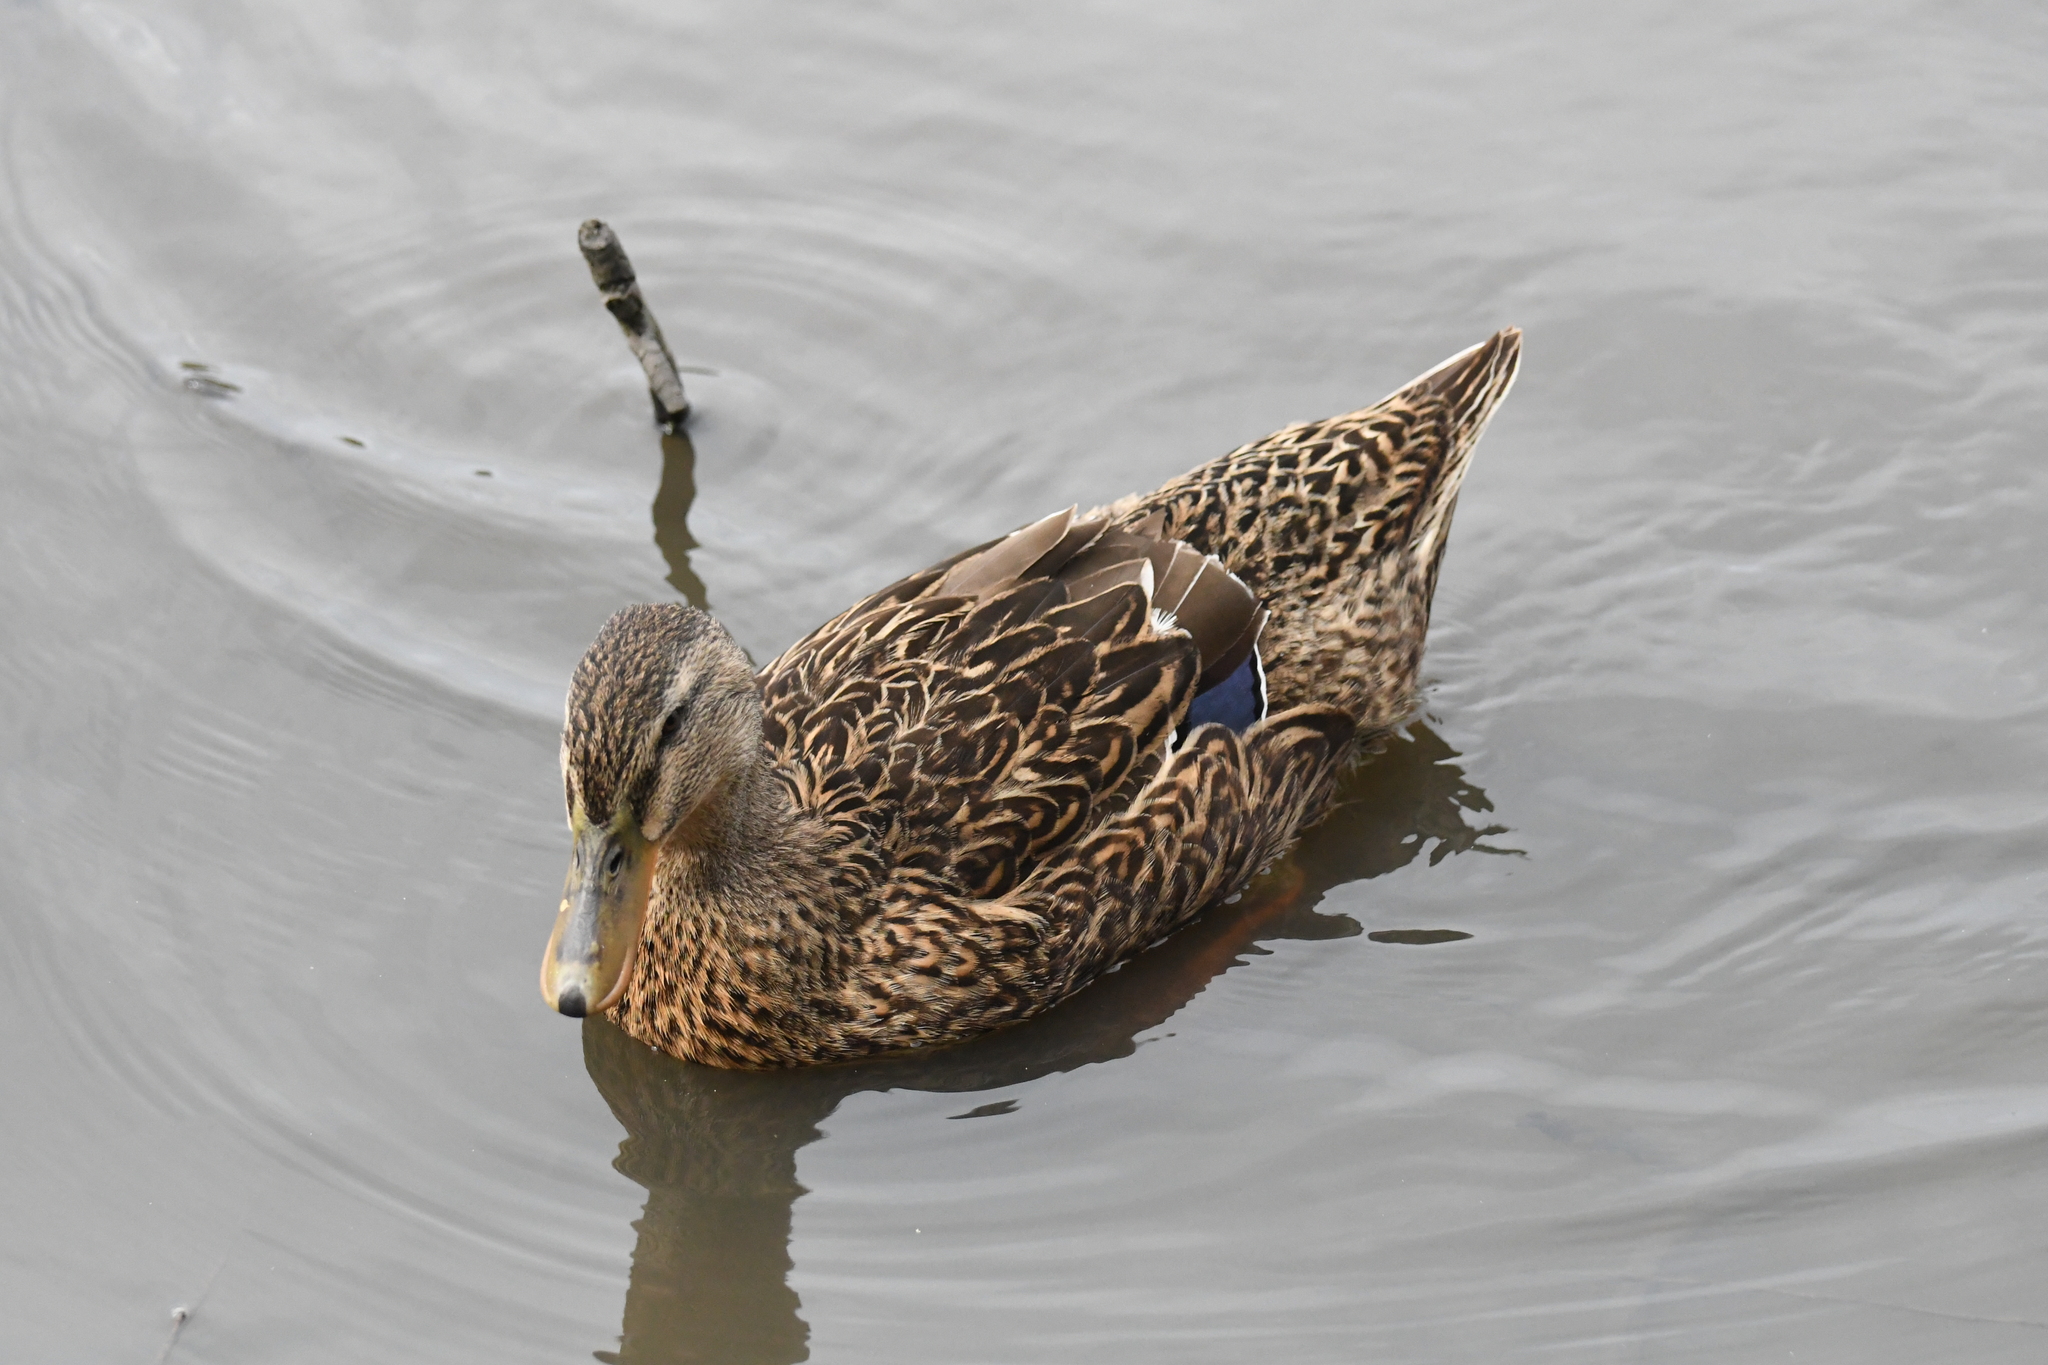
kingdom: Animalia
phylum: Chordata
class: Aves
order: Anseriformes
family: Anatidae
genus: Anas
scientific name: Anas platyrhynchos
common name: Mallard
